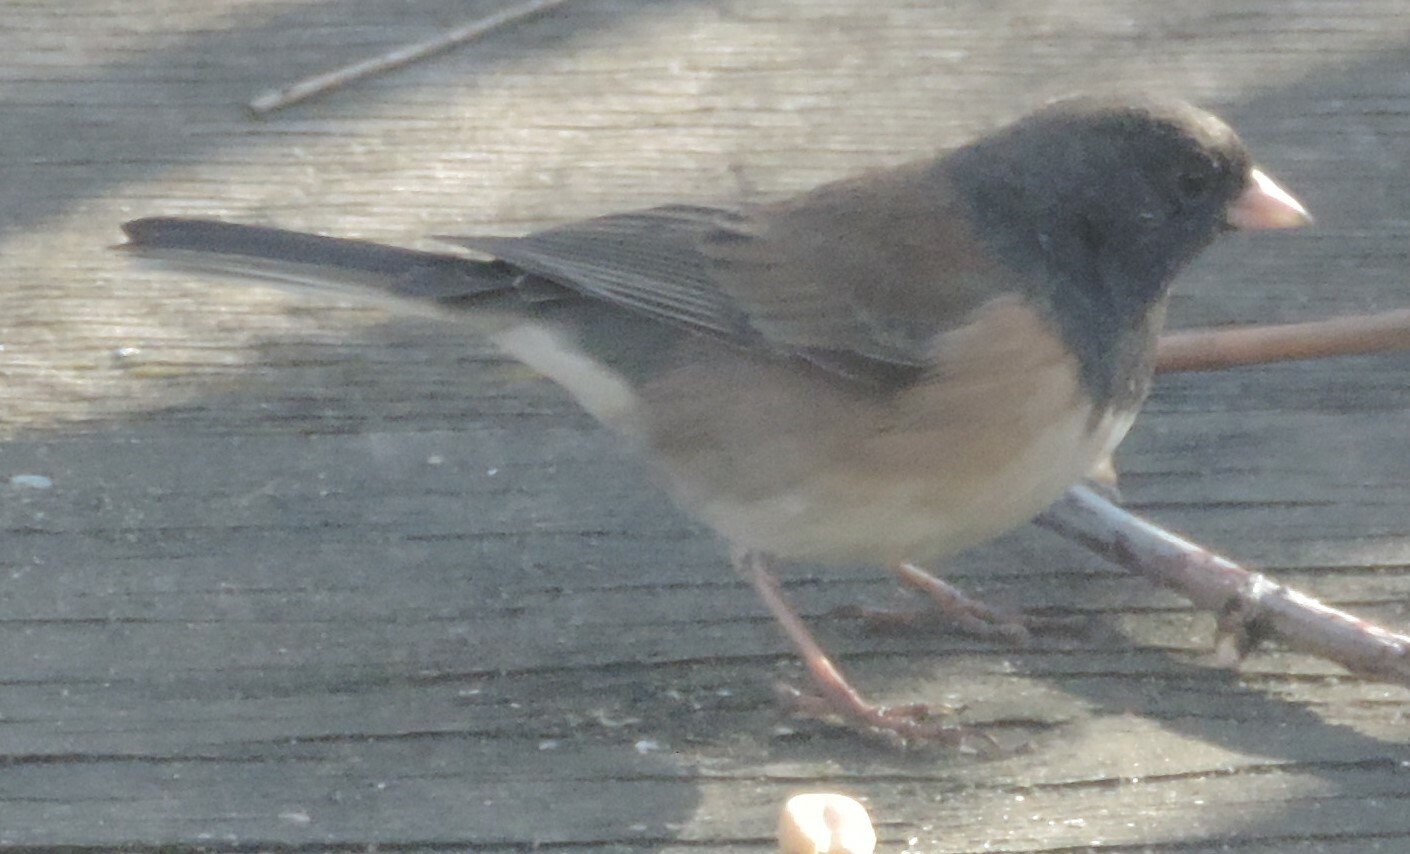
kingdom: Animalia
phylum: Chordata
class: Aves
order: Passeriformes
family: Passerellidae
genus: Junco
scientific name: Junco hyemalis
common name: Dark-eyed junco
